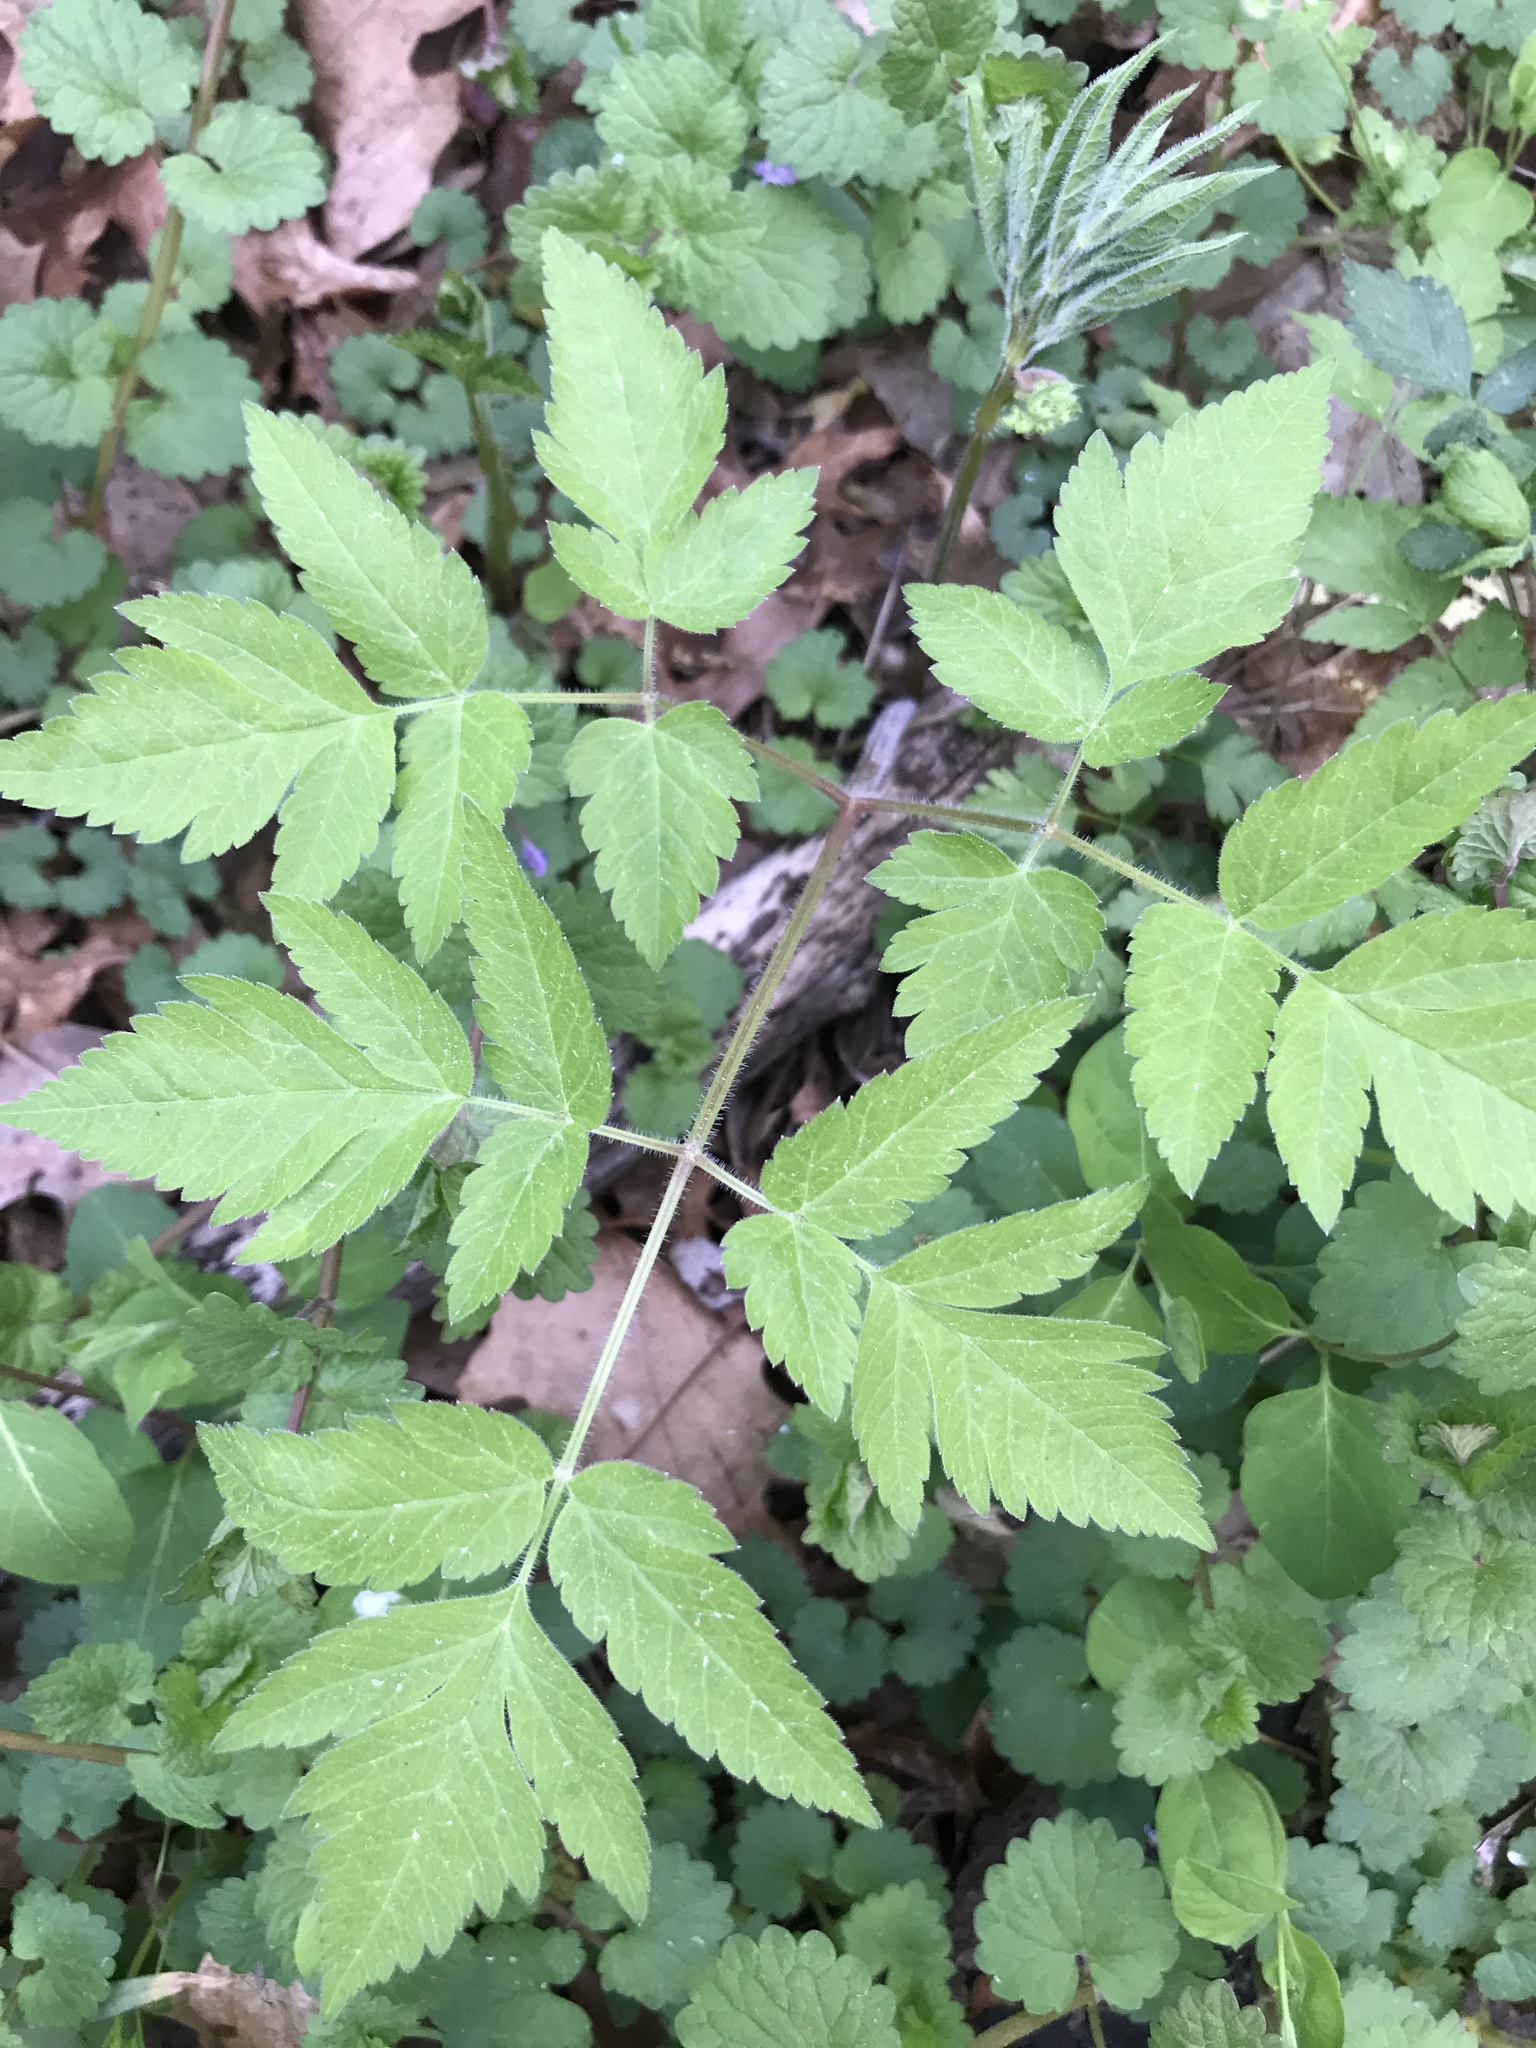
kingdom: Plantae
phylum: Tracheophyta
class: Magnoliopsida
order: Apiales
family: Apiaceae
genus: Osmorhiza
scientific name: Osmorhiza claytonii
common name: Hairy sweet cicely
